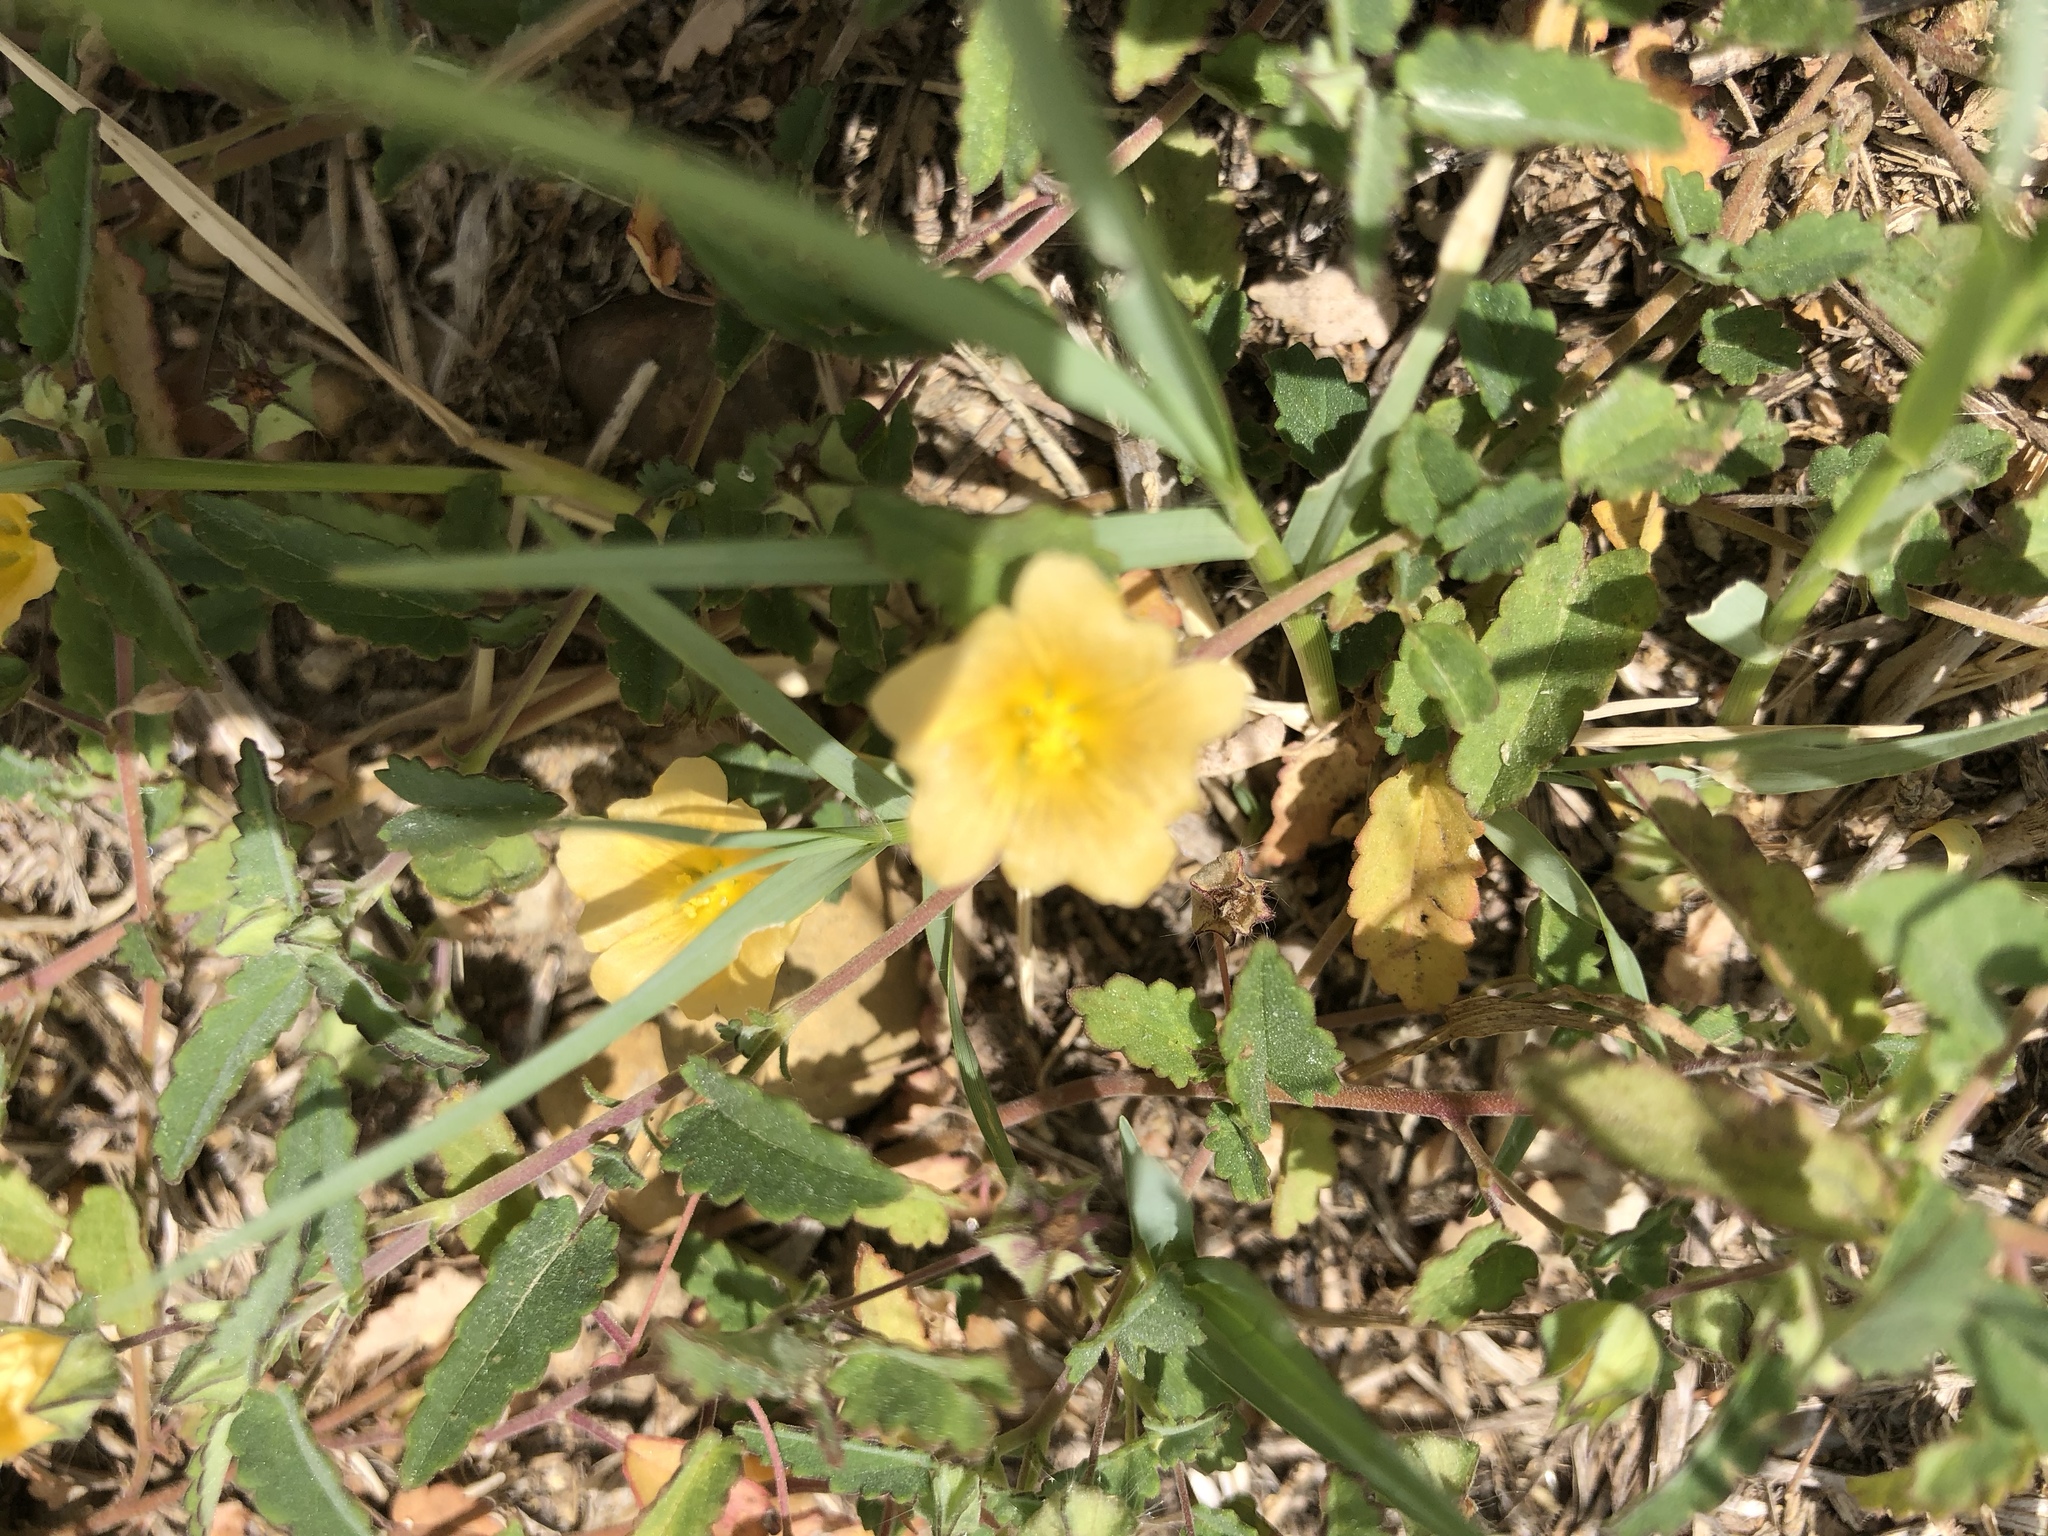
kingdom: Plantae
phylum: Tracheophyta
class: Magnoliopsida
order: Malvales
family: Malvaceae
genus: Sida
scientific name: Sida abutilifolia
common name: Spreading fanpetals
